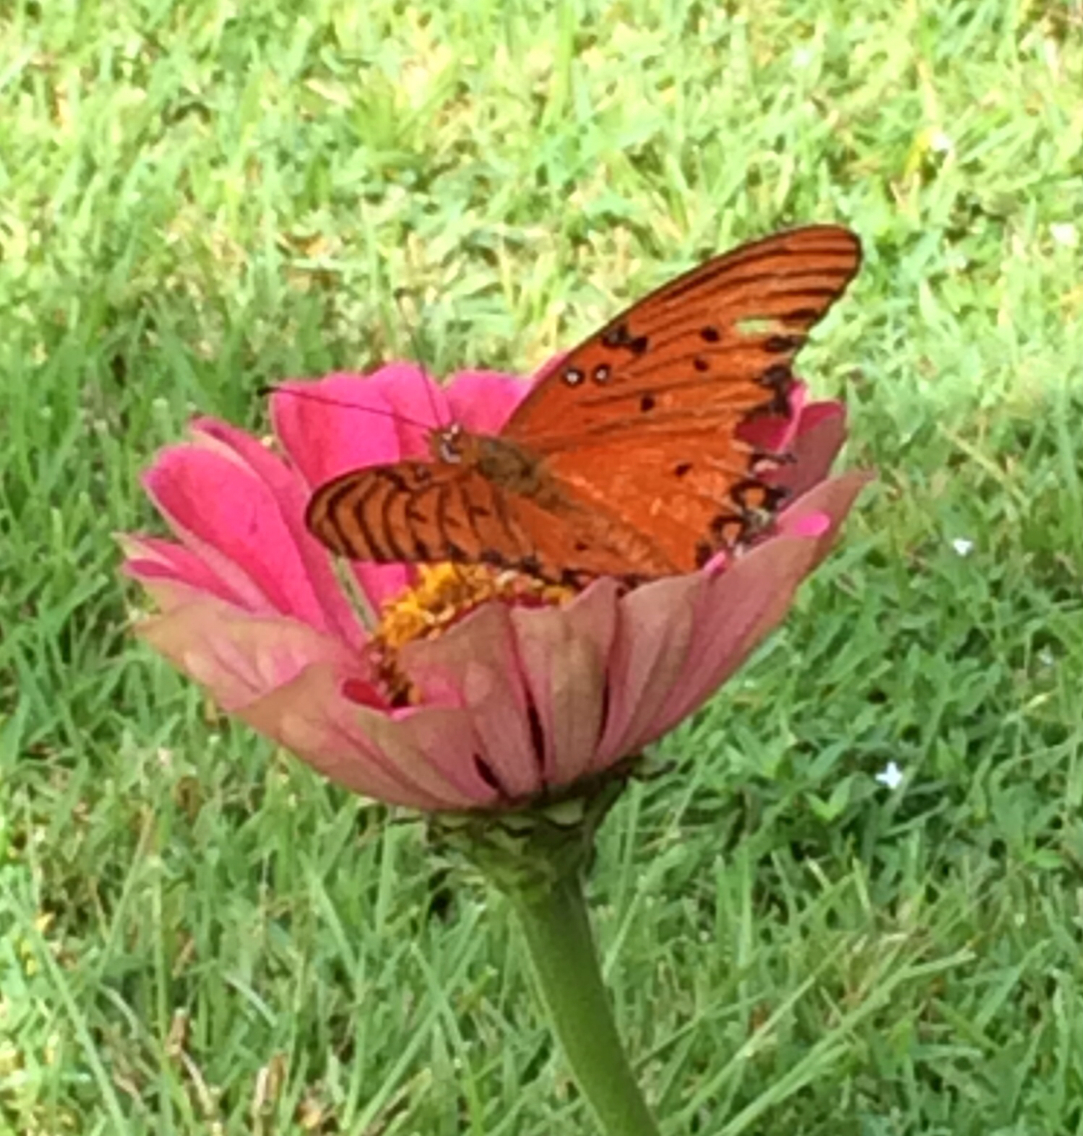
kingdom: Animalia
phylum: Arthropoda
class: Insecta
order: Lepidoptera
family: Nymphalidae
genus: Dione
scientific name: Dione vanillae
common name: Gulf fritillary
